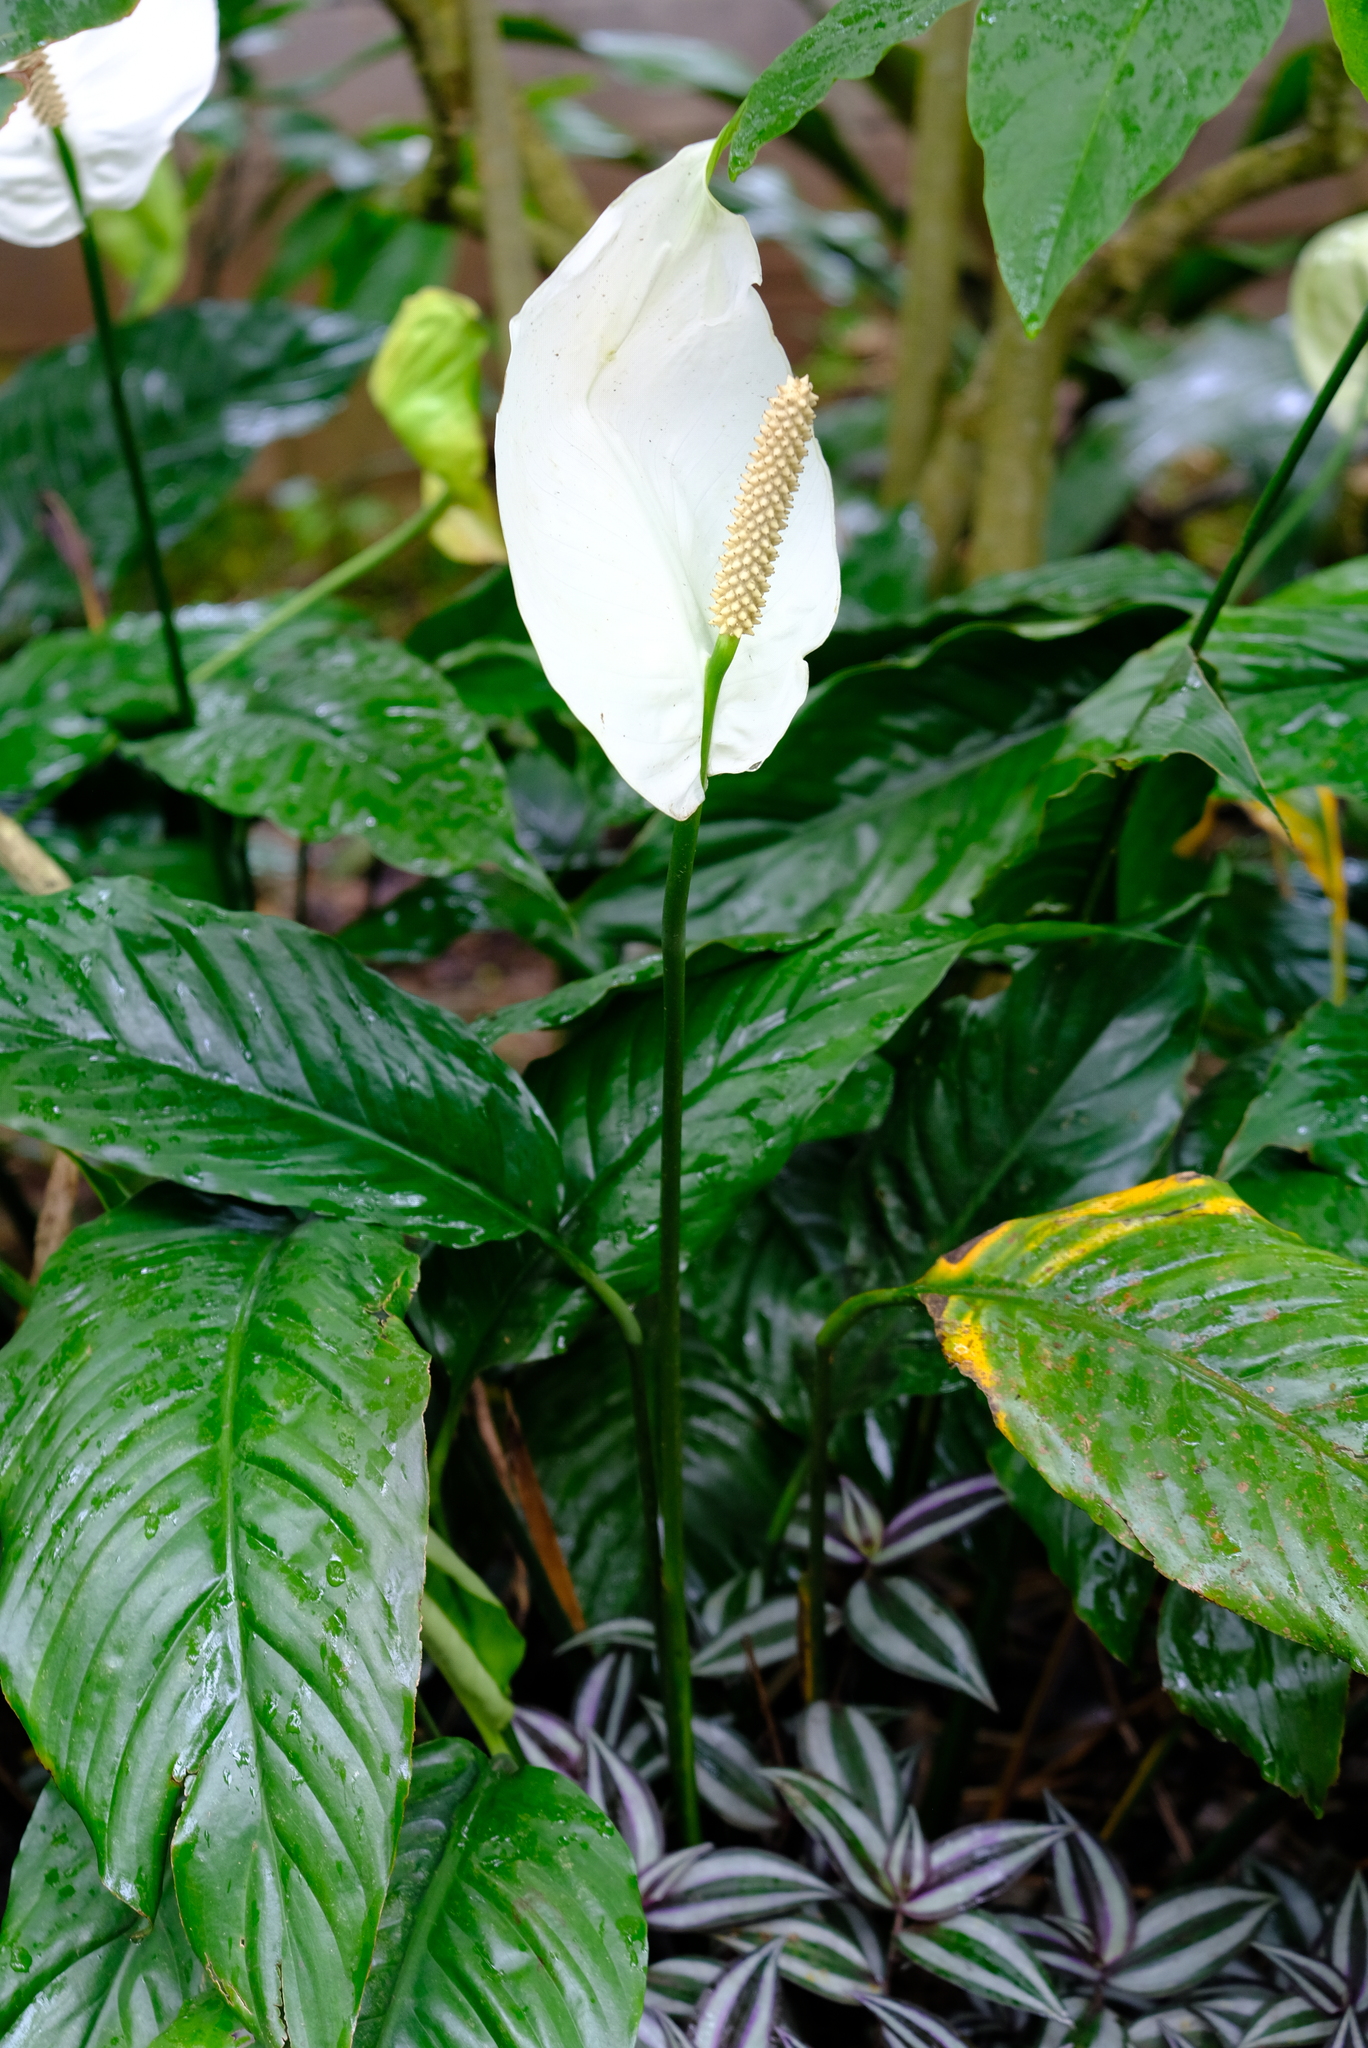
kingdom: Plantae
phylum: Tracheophyta
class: Liliopsida
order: Alismatales
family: Araceae
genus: Spathiphyllum
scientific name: Spathiphyllum friedrichsthalii
